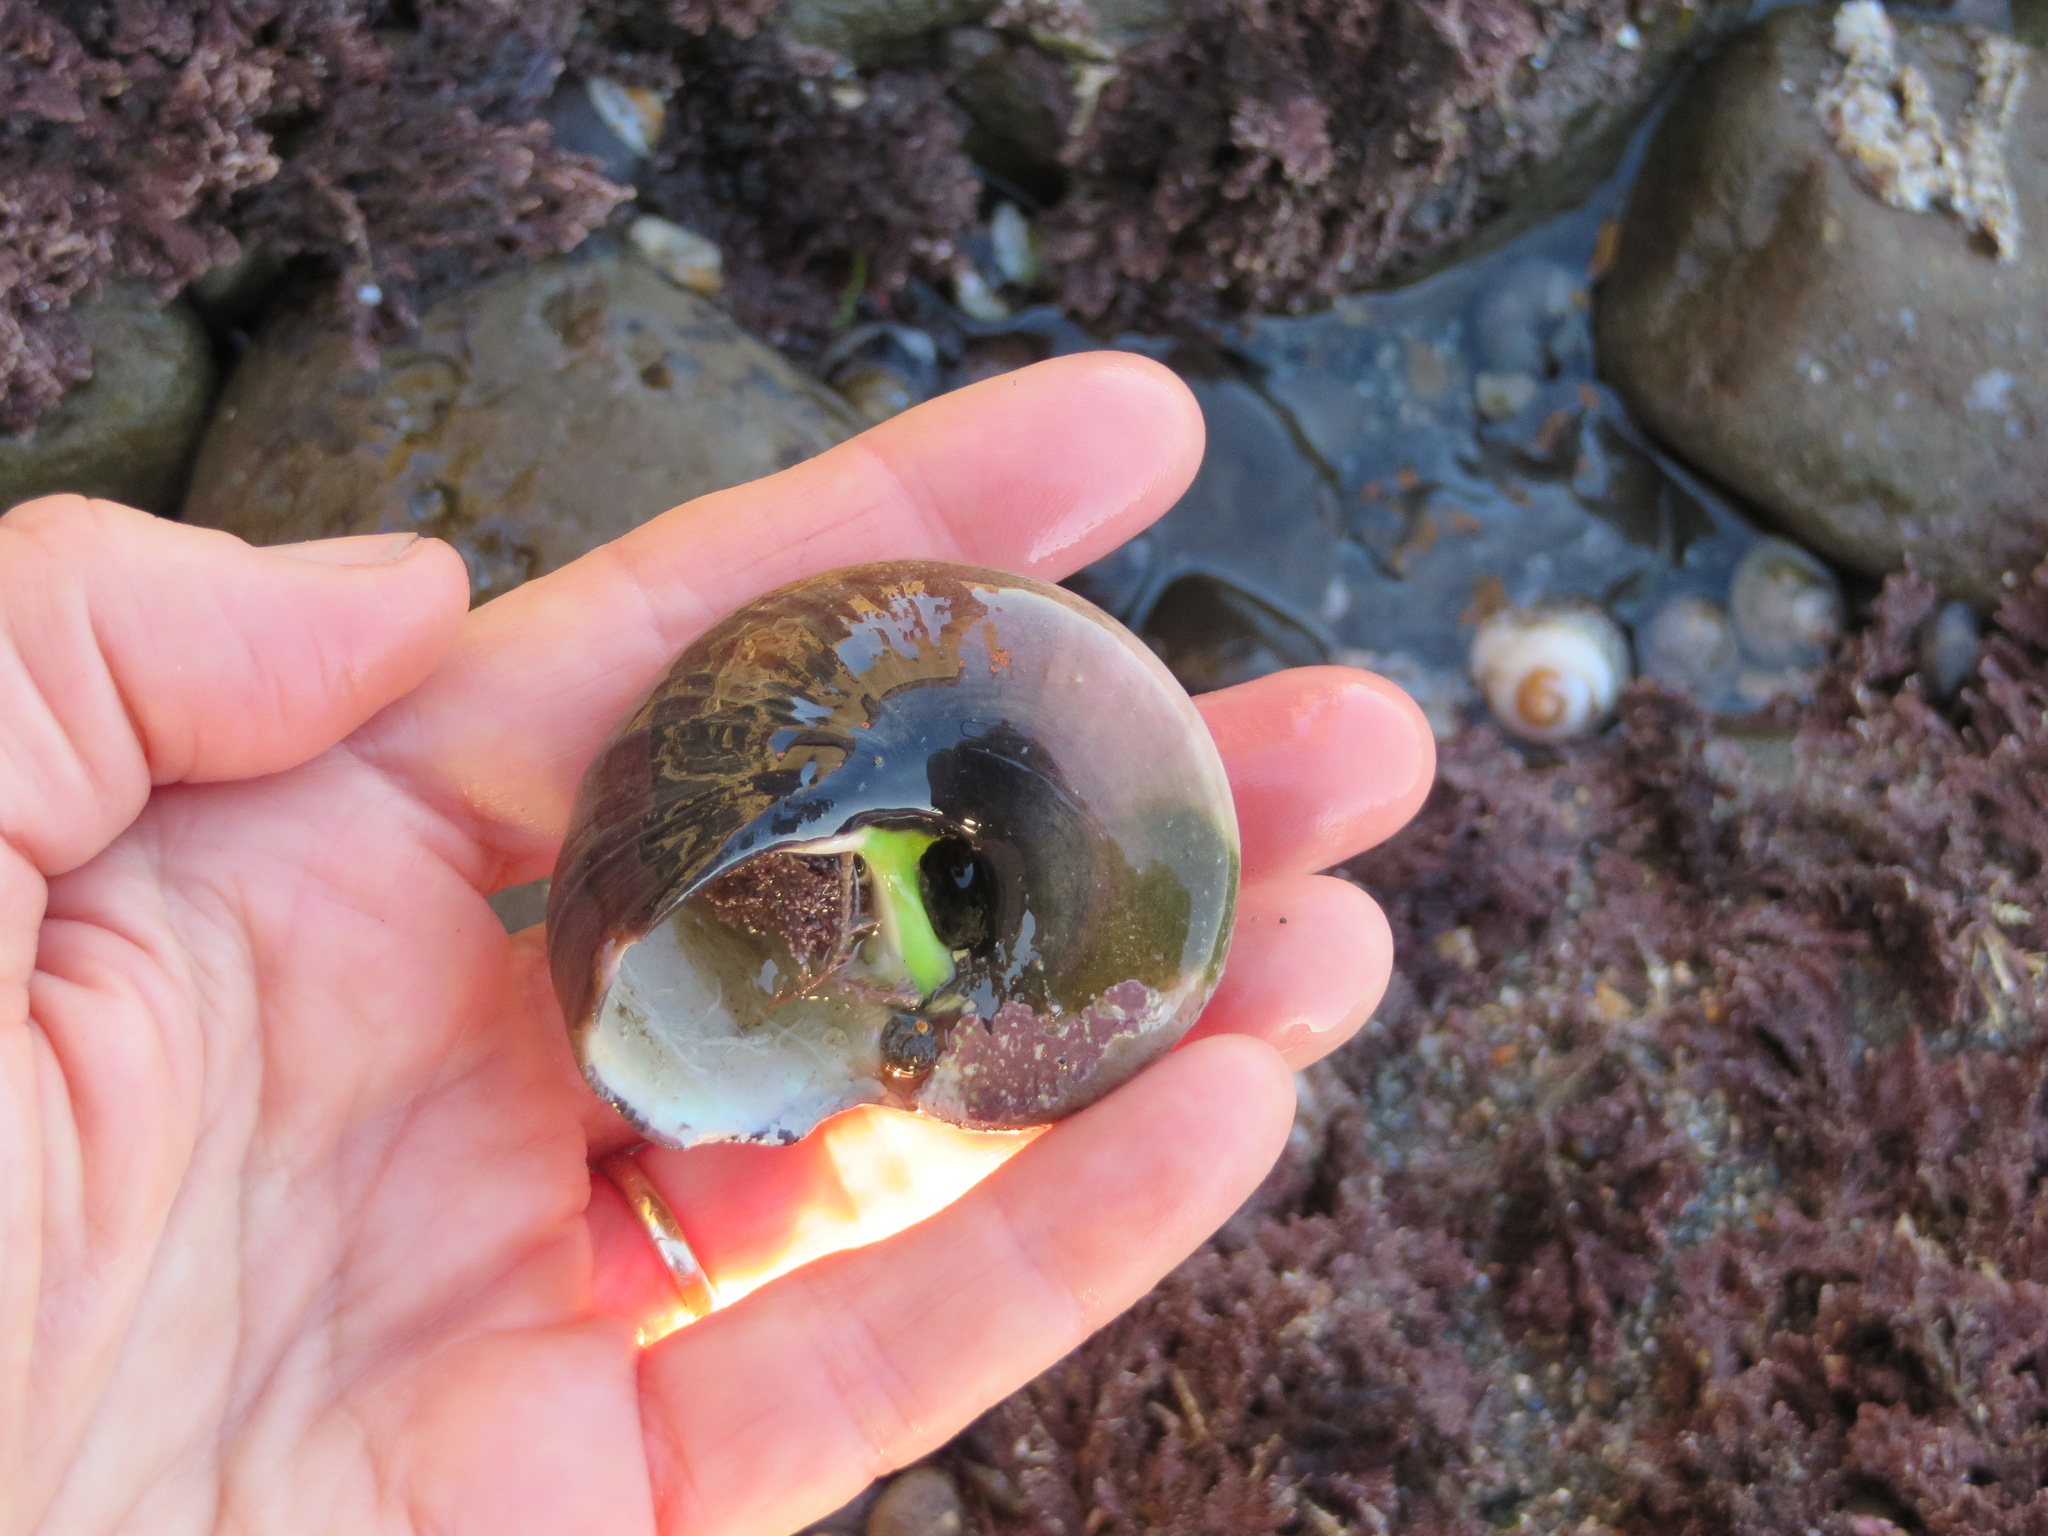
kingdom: Animalia
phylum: Mollusca
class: Gastropoda
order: Trochida
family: Tegulidae
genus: Norrisia
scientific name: Norrisia norrisii
